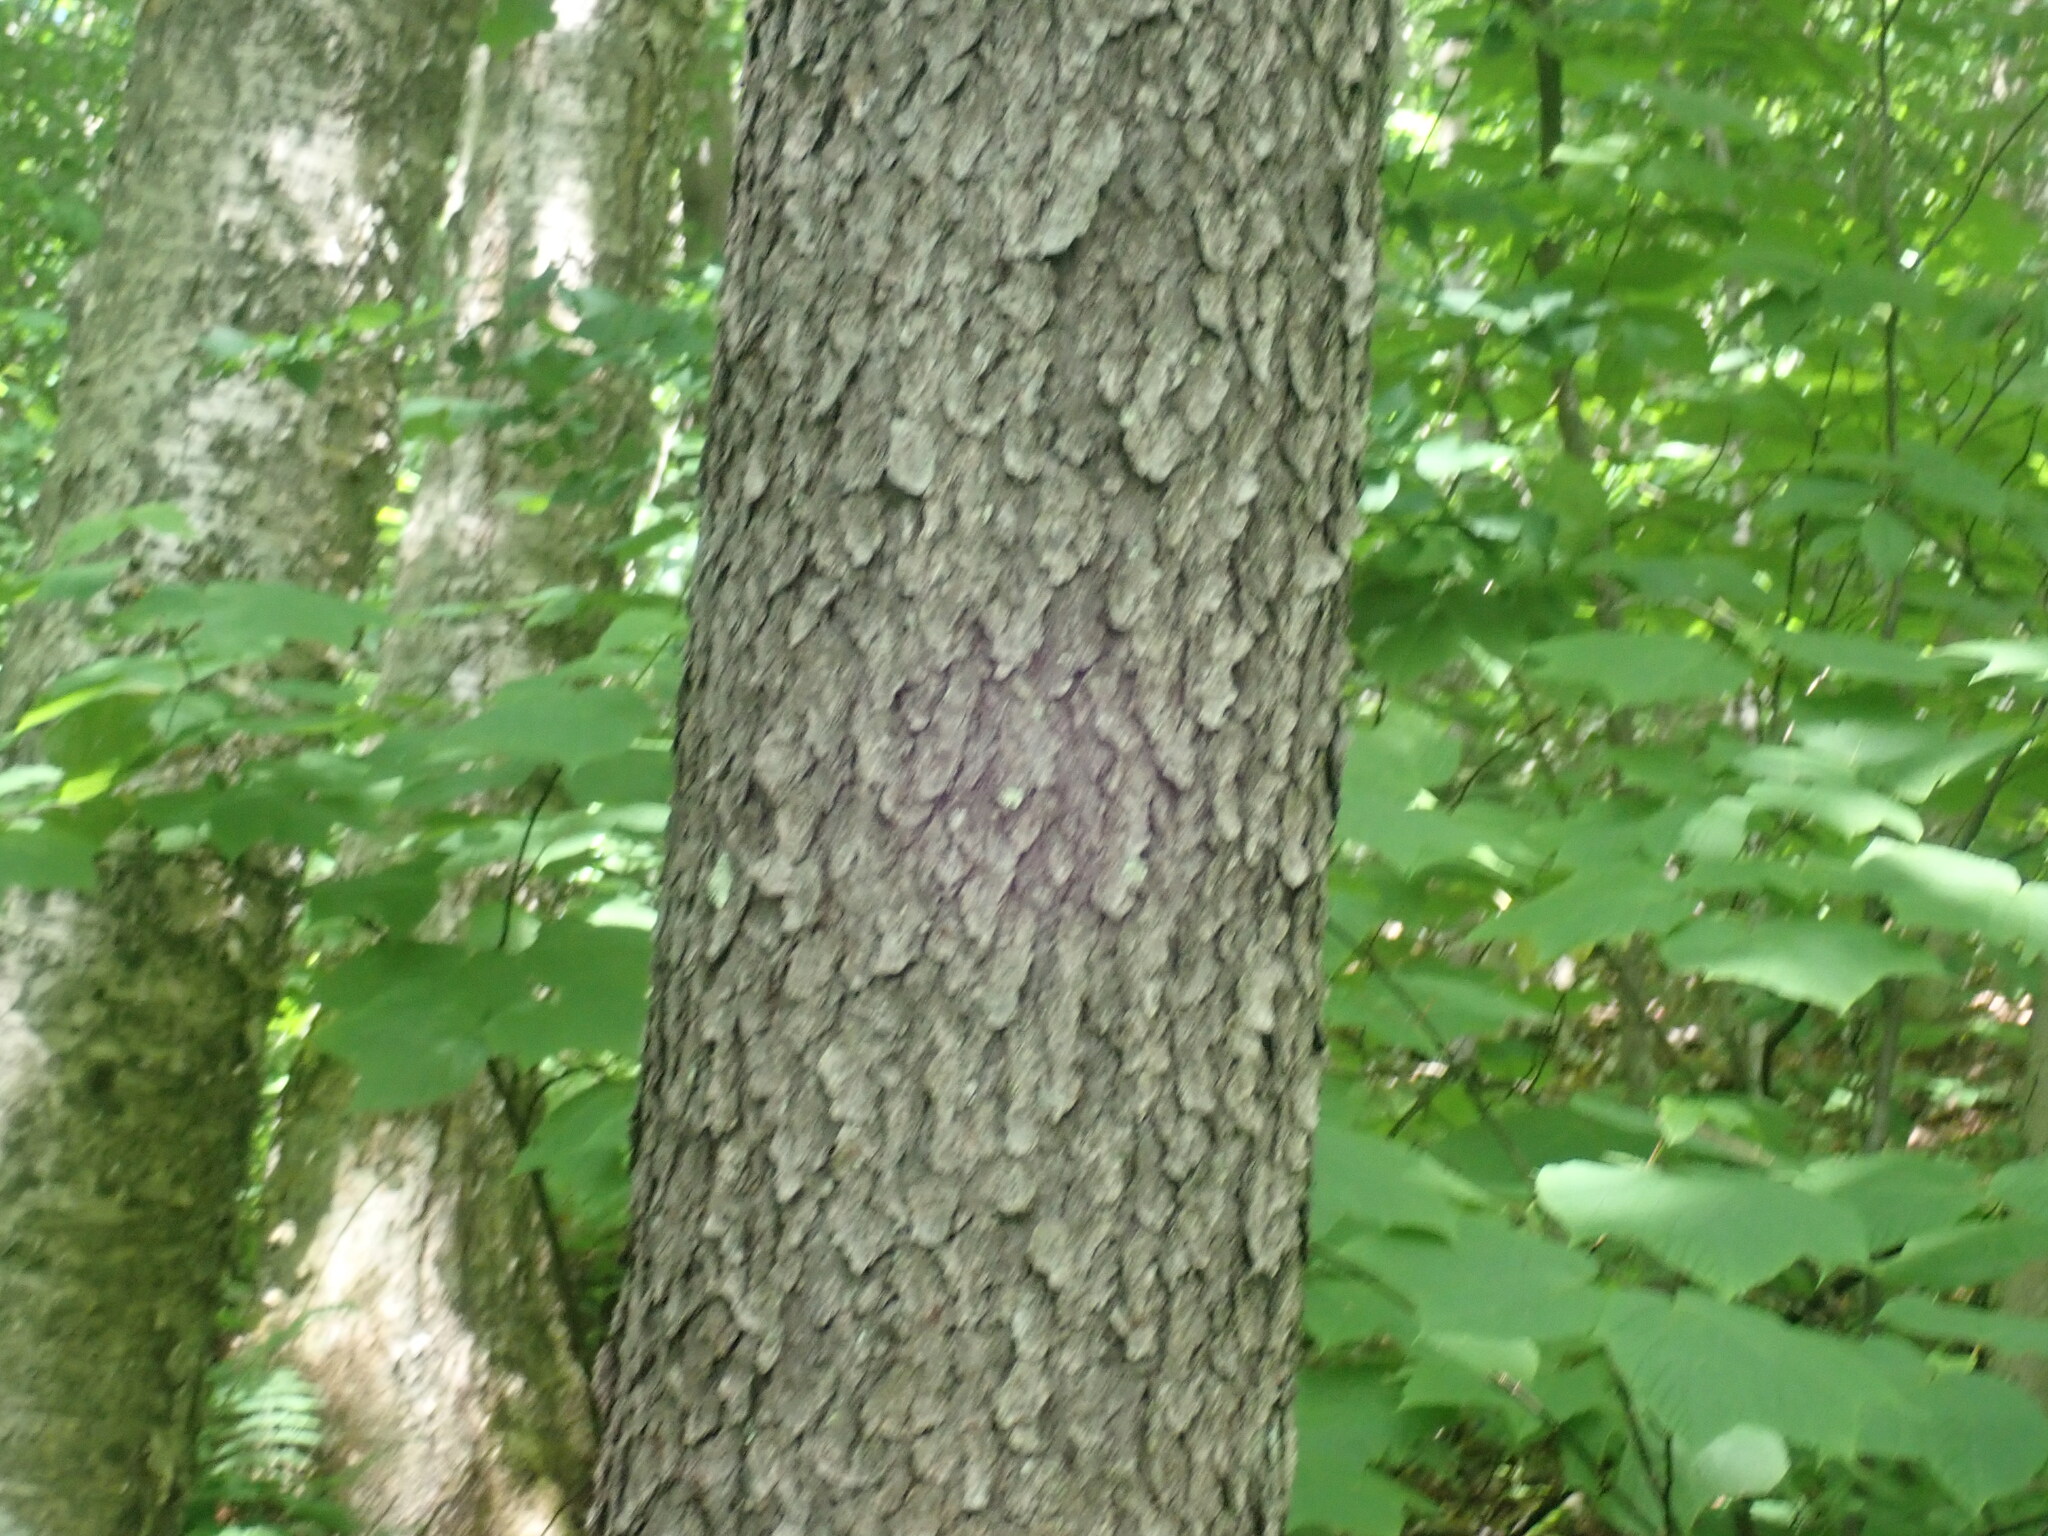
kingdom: Plantae
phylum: Tracheophyta
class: Magnoliopsida
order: Rosales
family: Rosaceae
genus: Prunus
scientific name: Prunus serotina
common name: Black cherry
